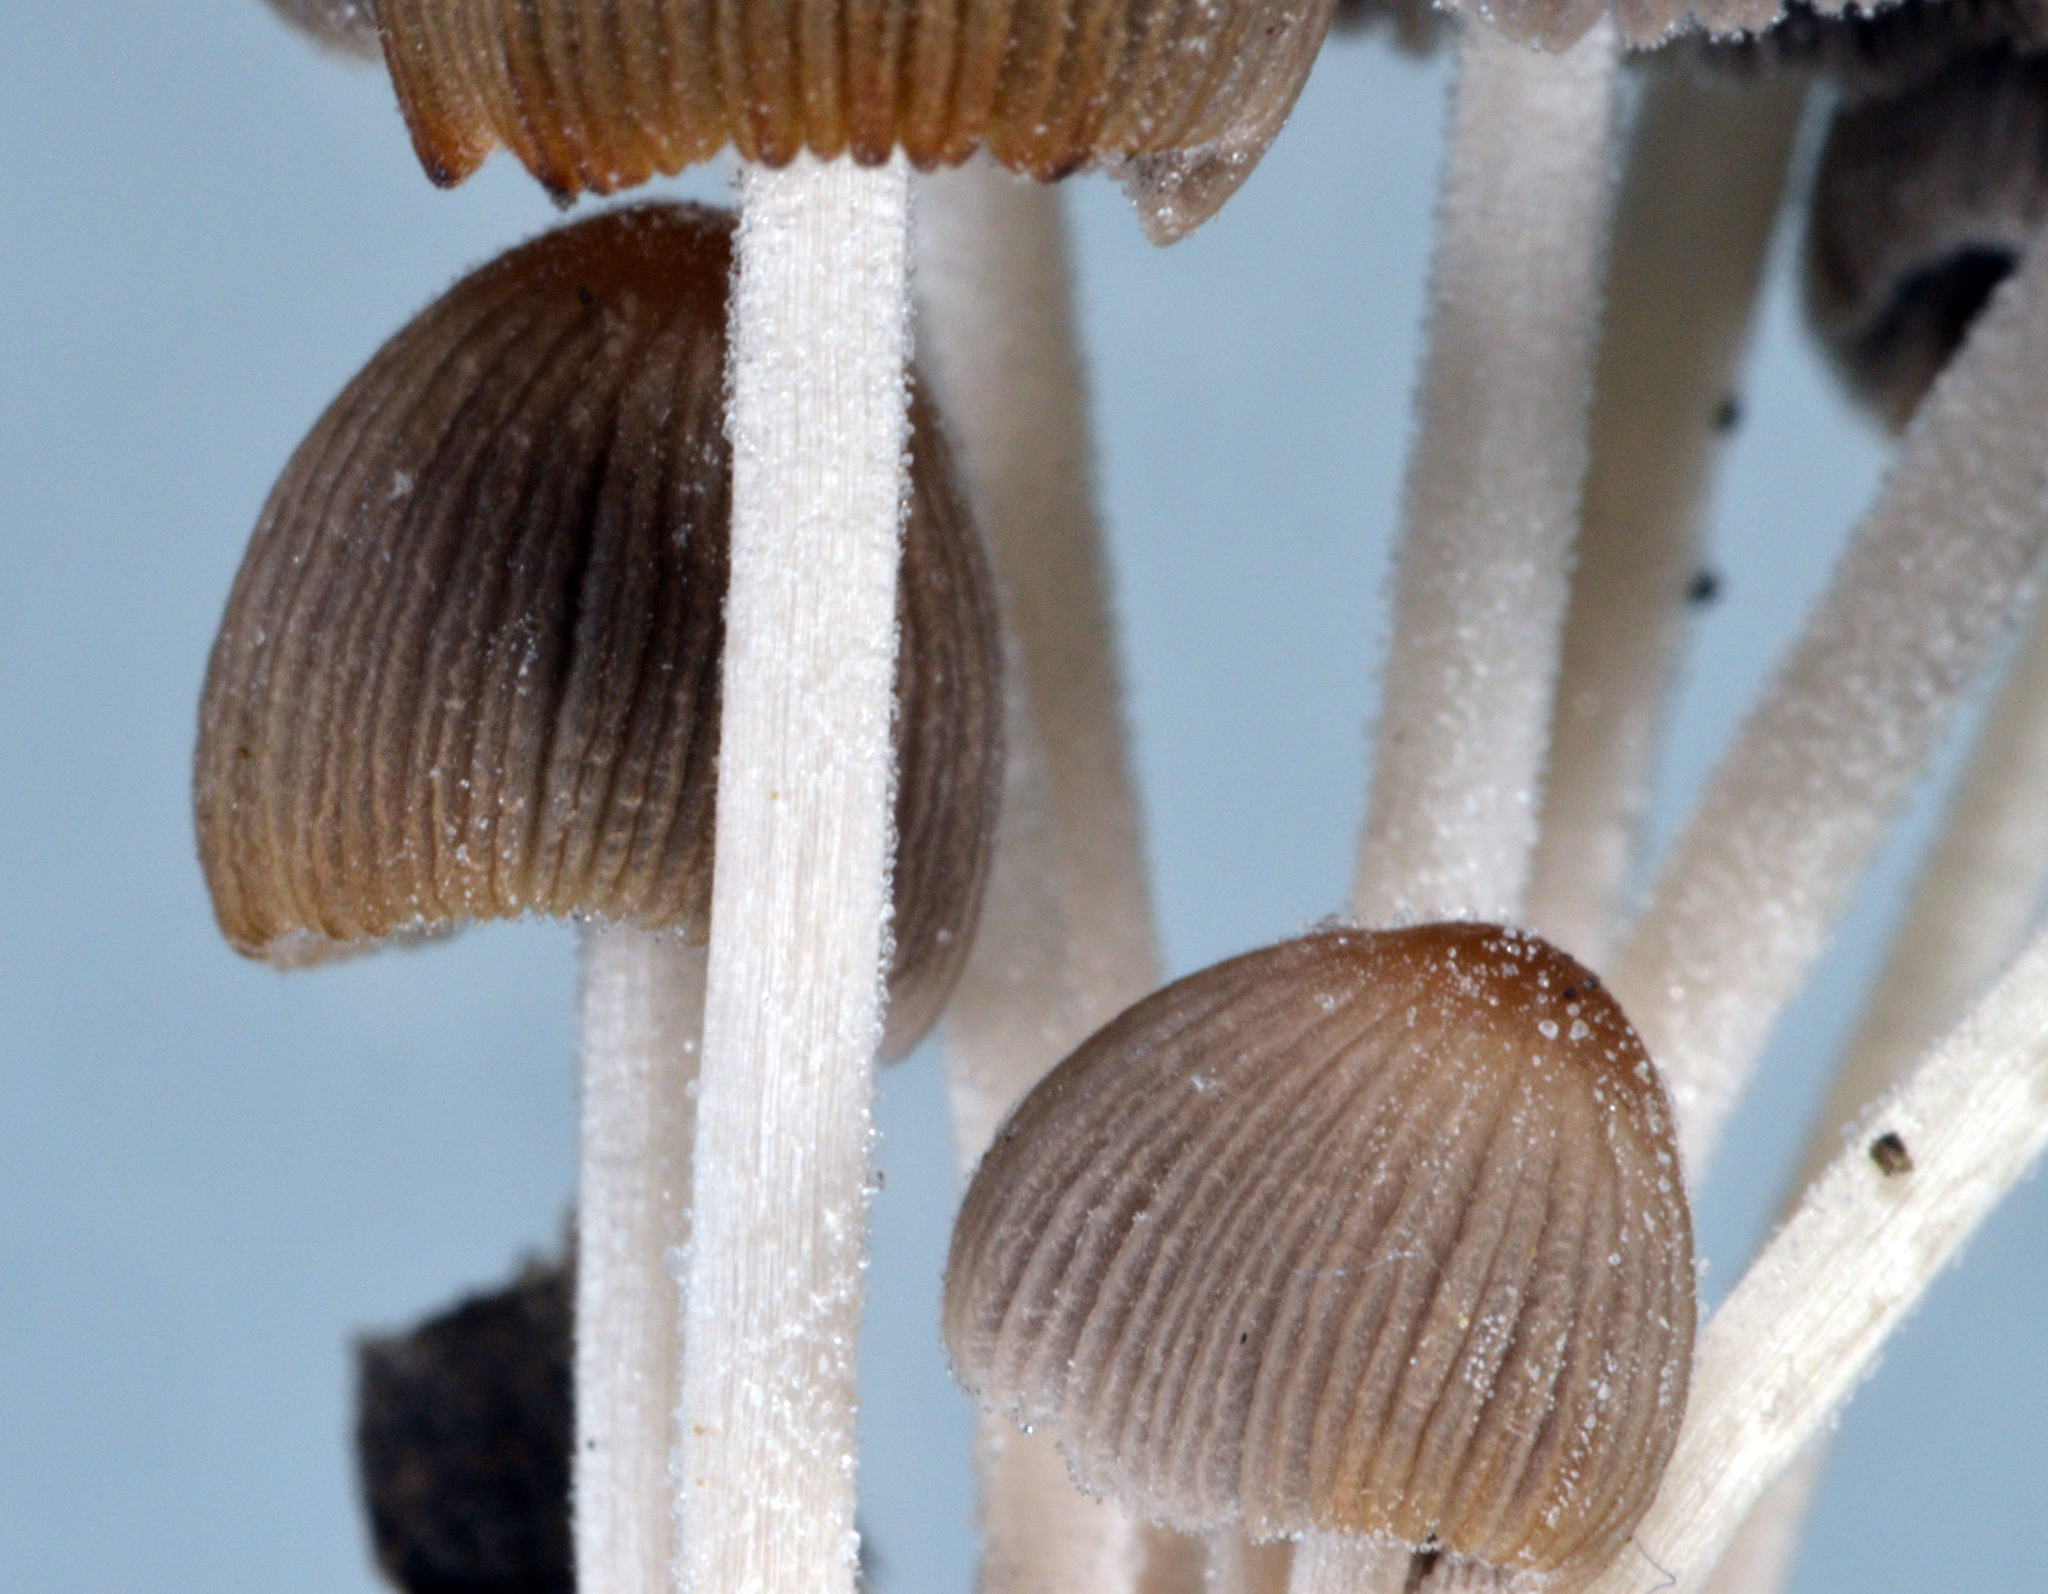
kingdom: Fungi
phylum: Basidiomycota
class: Agaricomycetes
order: Agaricales
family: Psathyrellaceae
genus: Tulosesus
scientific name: Tulosesus plagioporus
